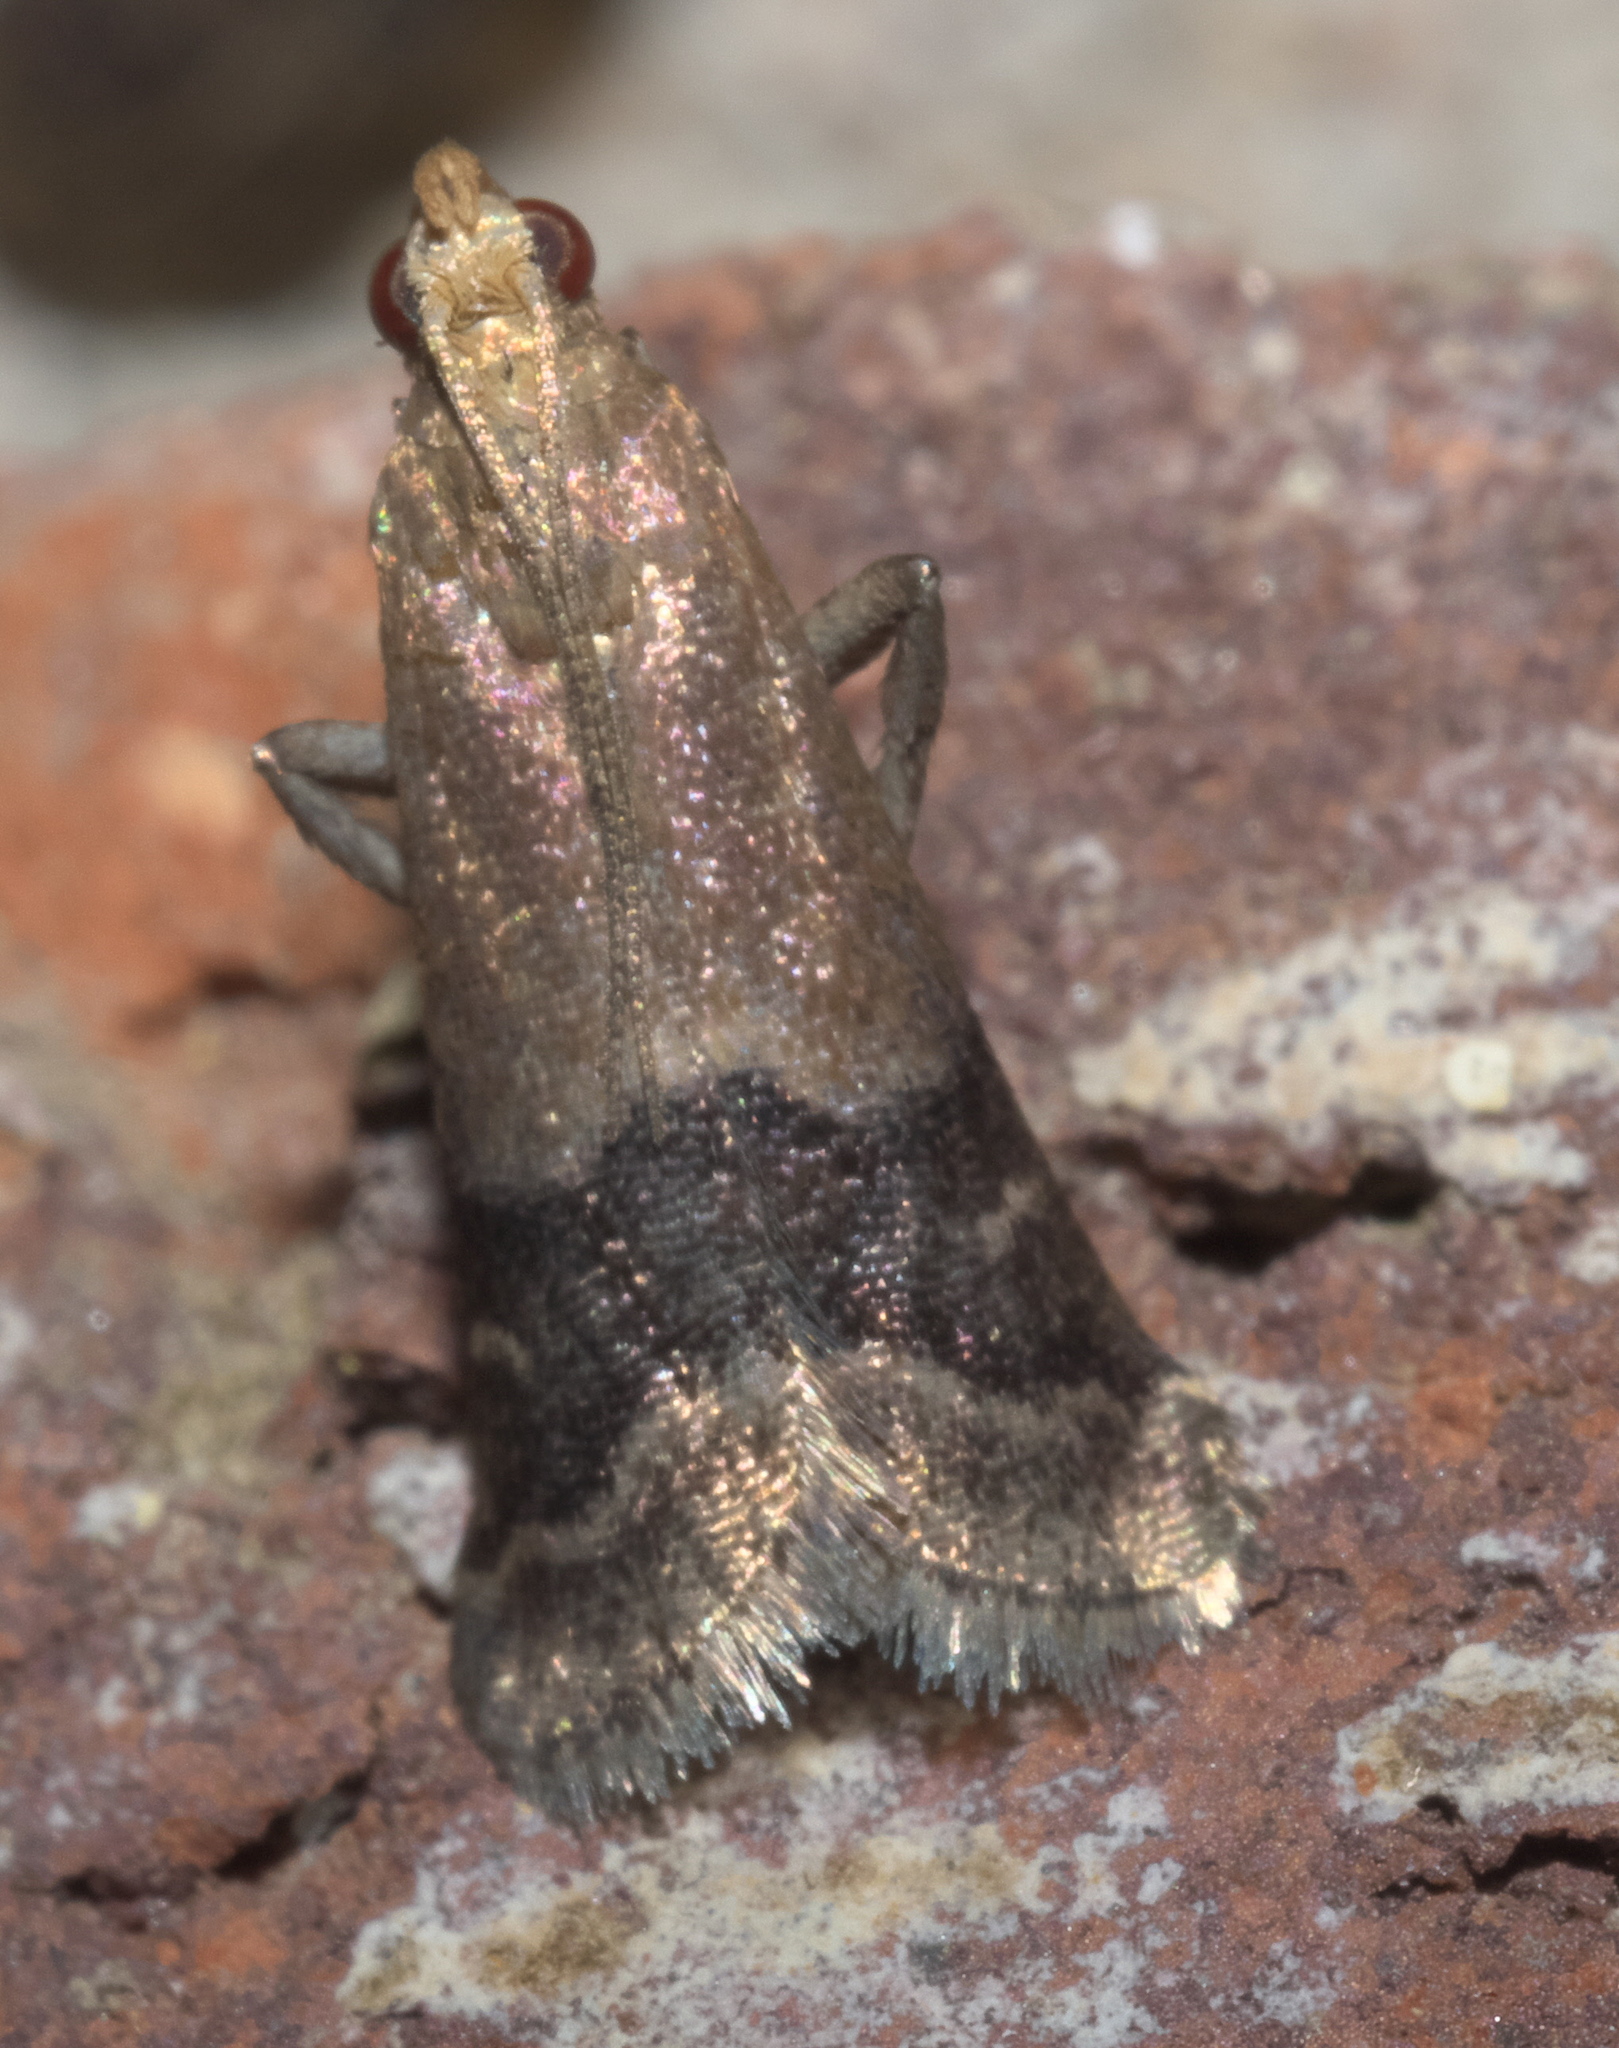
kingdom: Animalia
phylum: Arthropoda
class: Insecta
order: Lepidoptera
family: Pyralidae
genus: Eulogia
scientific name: Eulogia ochrifrontella
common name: Broad-banded eulogia moth
